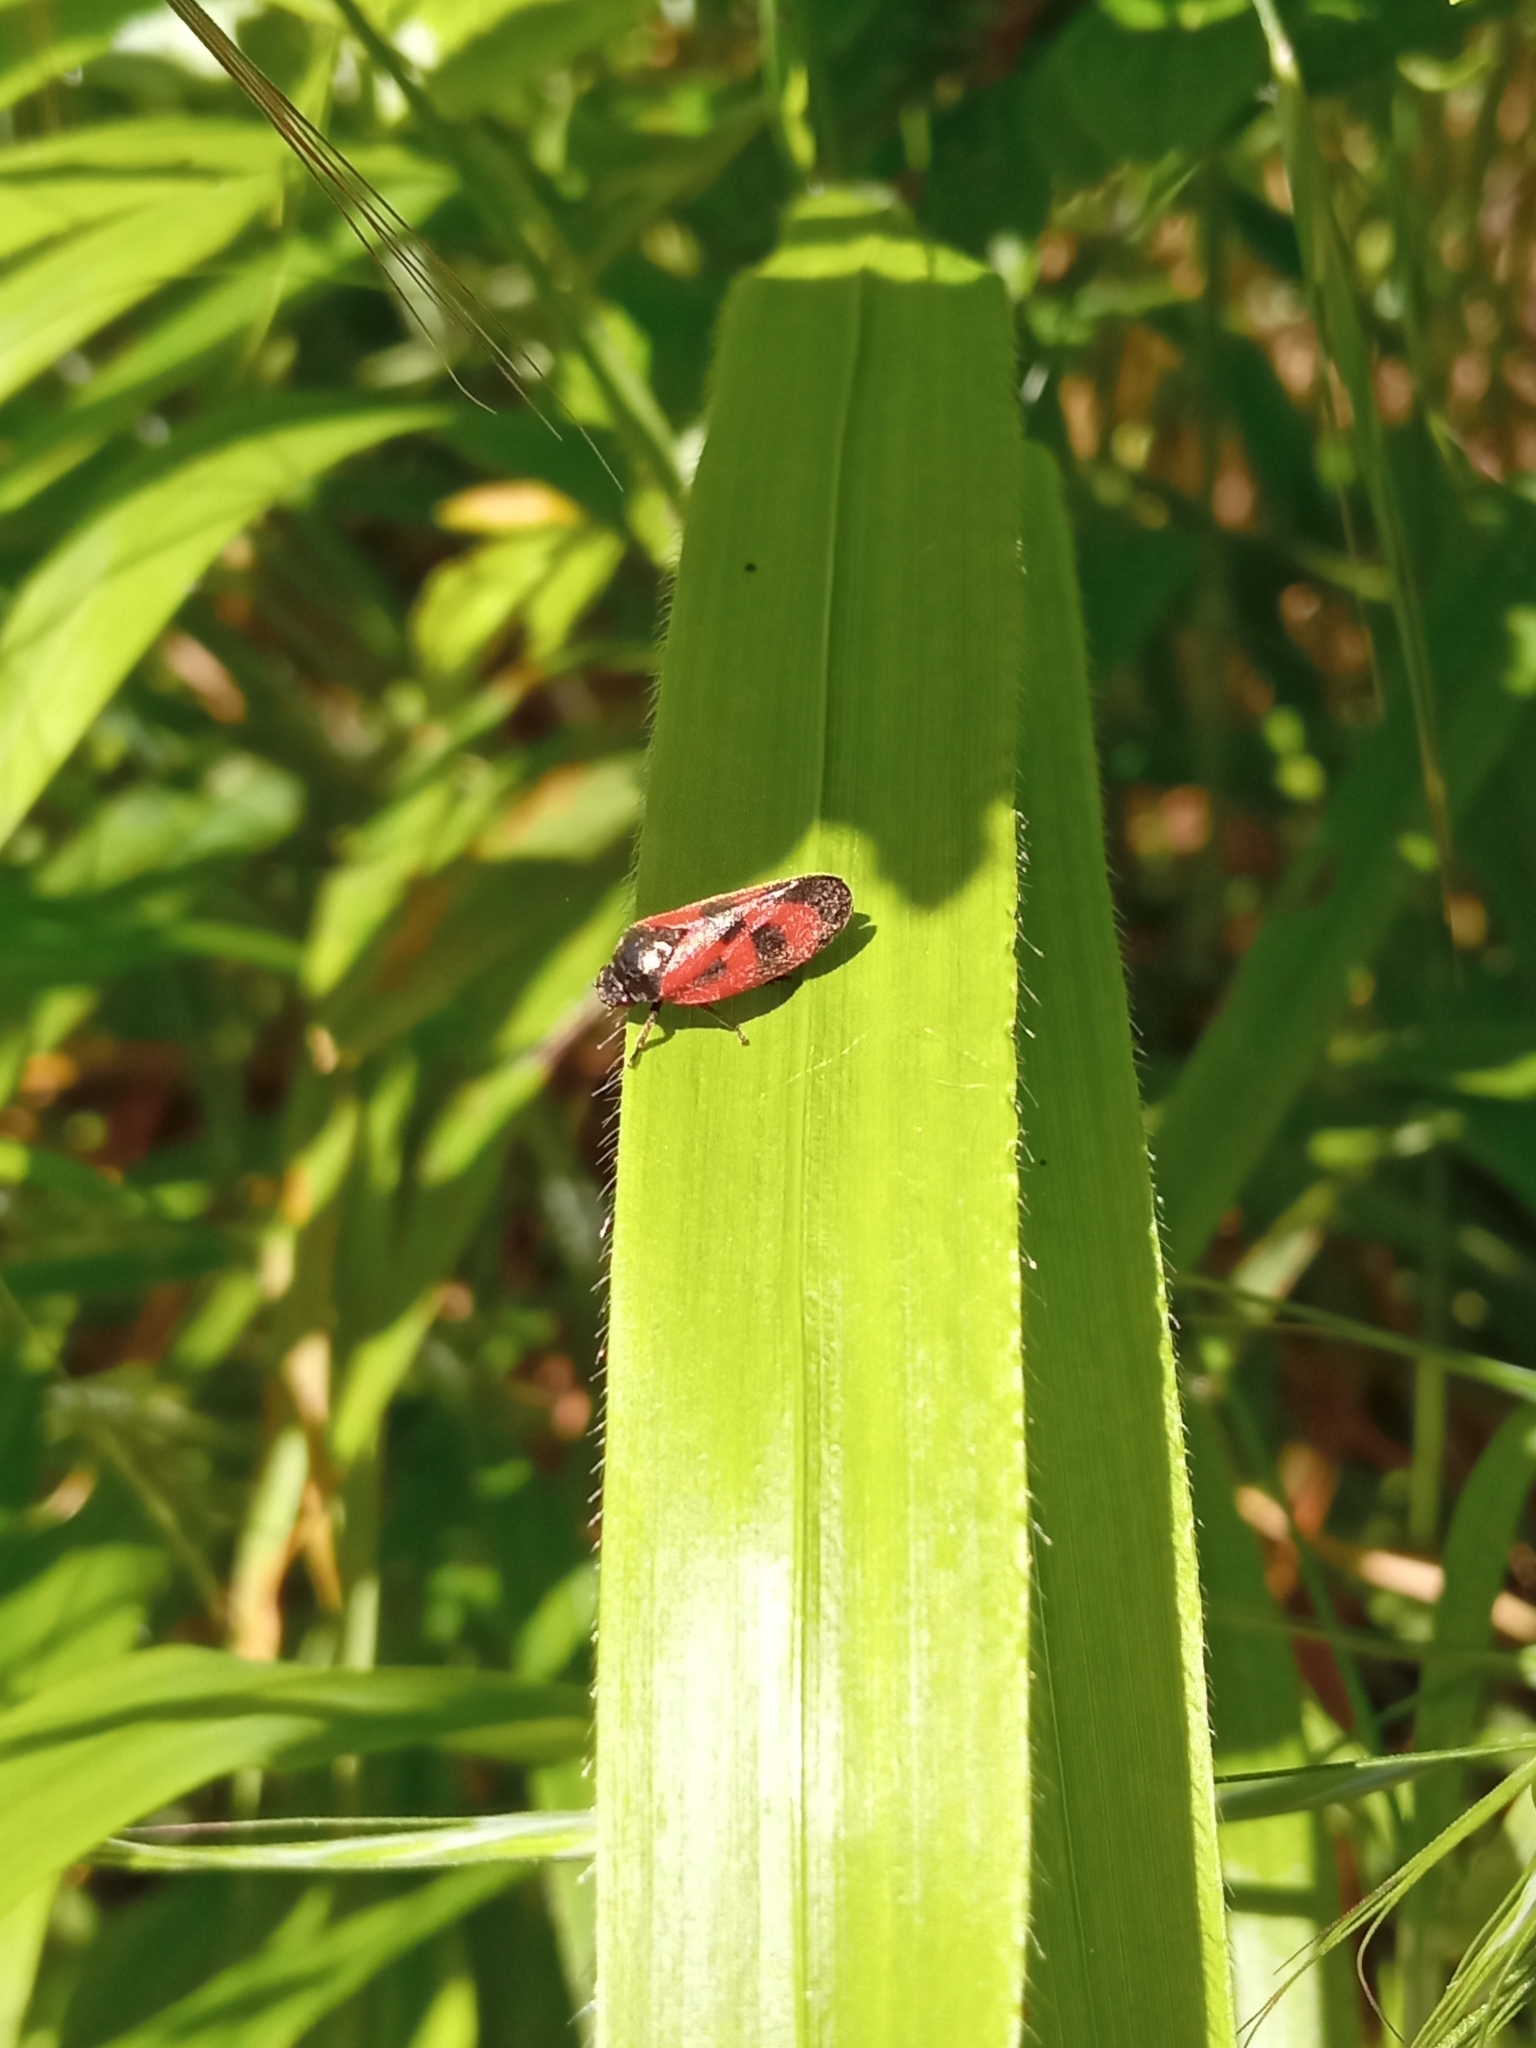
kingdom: Animalia
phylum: Arthropoda
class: Insecta
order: Hemiptera
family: Cercopidae
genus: Haematoloma
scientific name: Haematoloma dorsata
